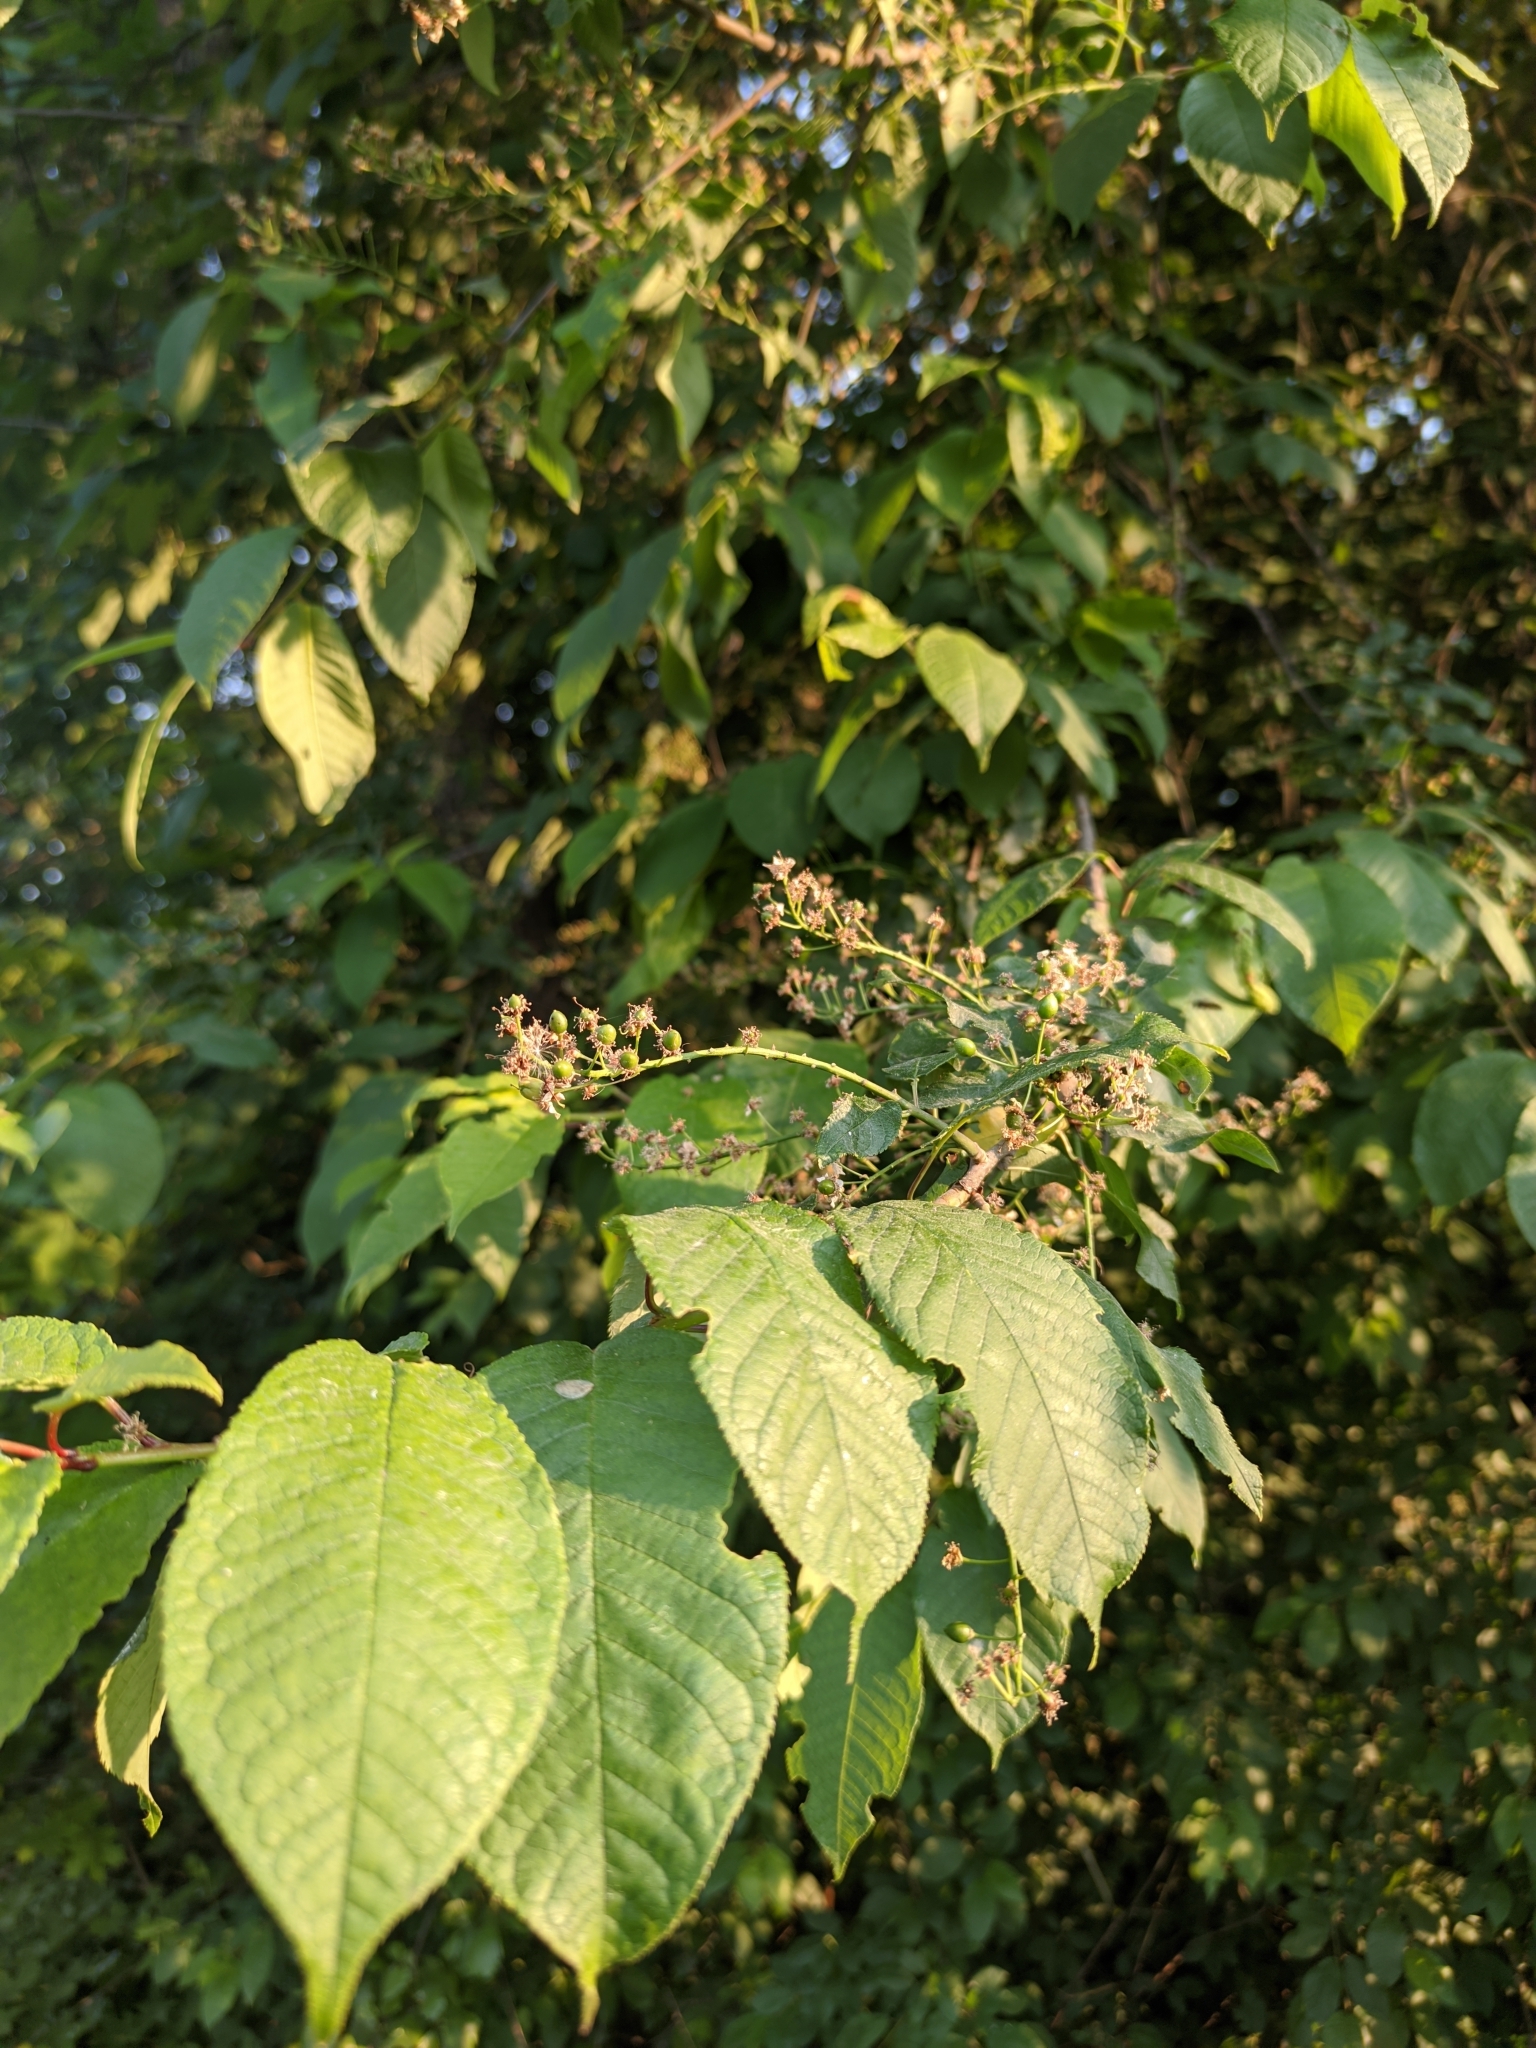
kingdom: Plantae
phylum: Tracheophyta
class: Magnoliopsida
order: Rosales
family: Rosaceae
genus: Prunus
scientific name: Prunus padus
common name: Bird cherry
